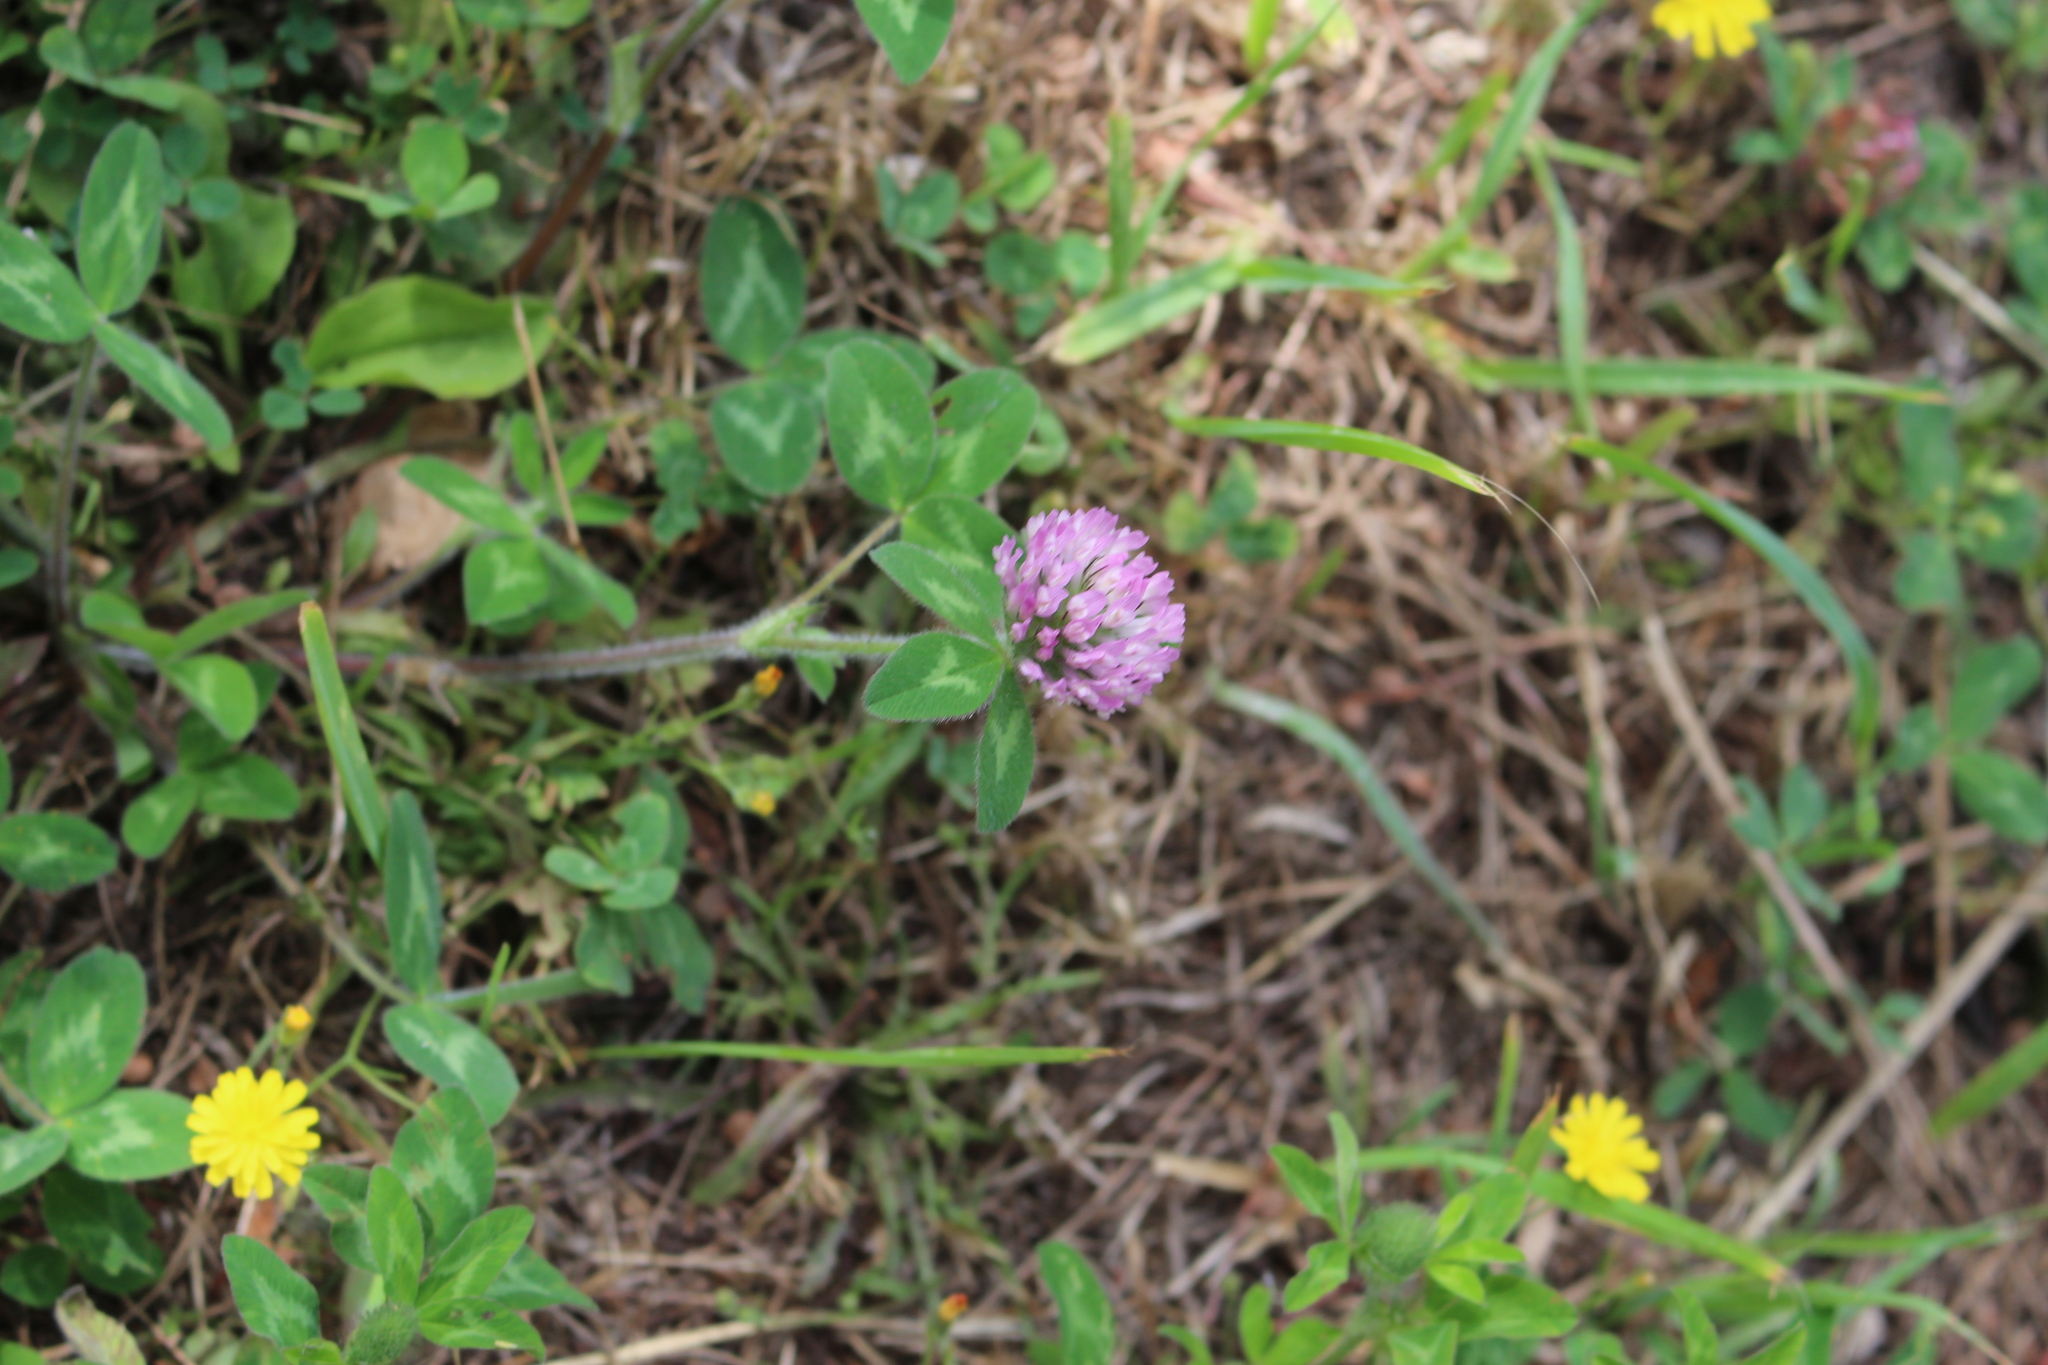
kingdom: Plantae
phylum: Tracheophyta
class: Magnoliopsida
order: Fabales
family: Fabaceae
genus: Trifolium
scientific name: Trifolium pratense
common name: Red clover
